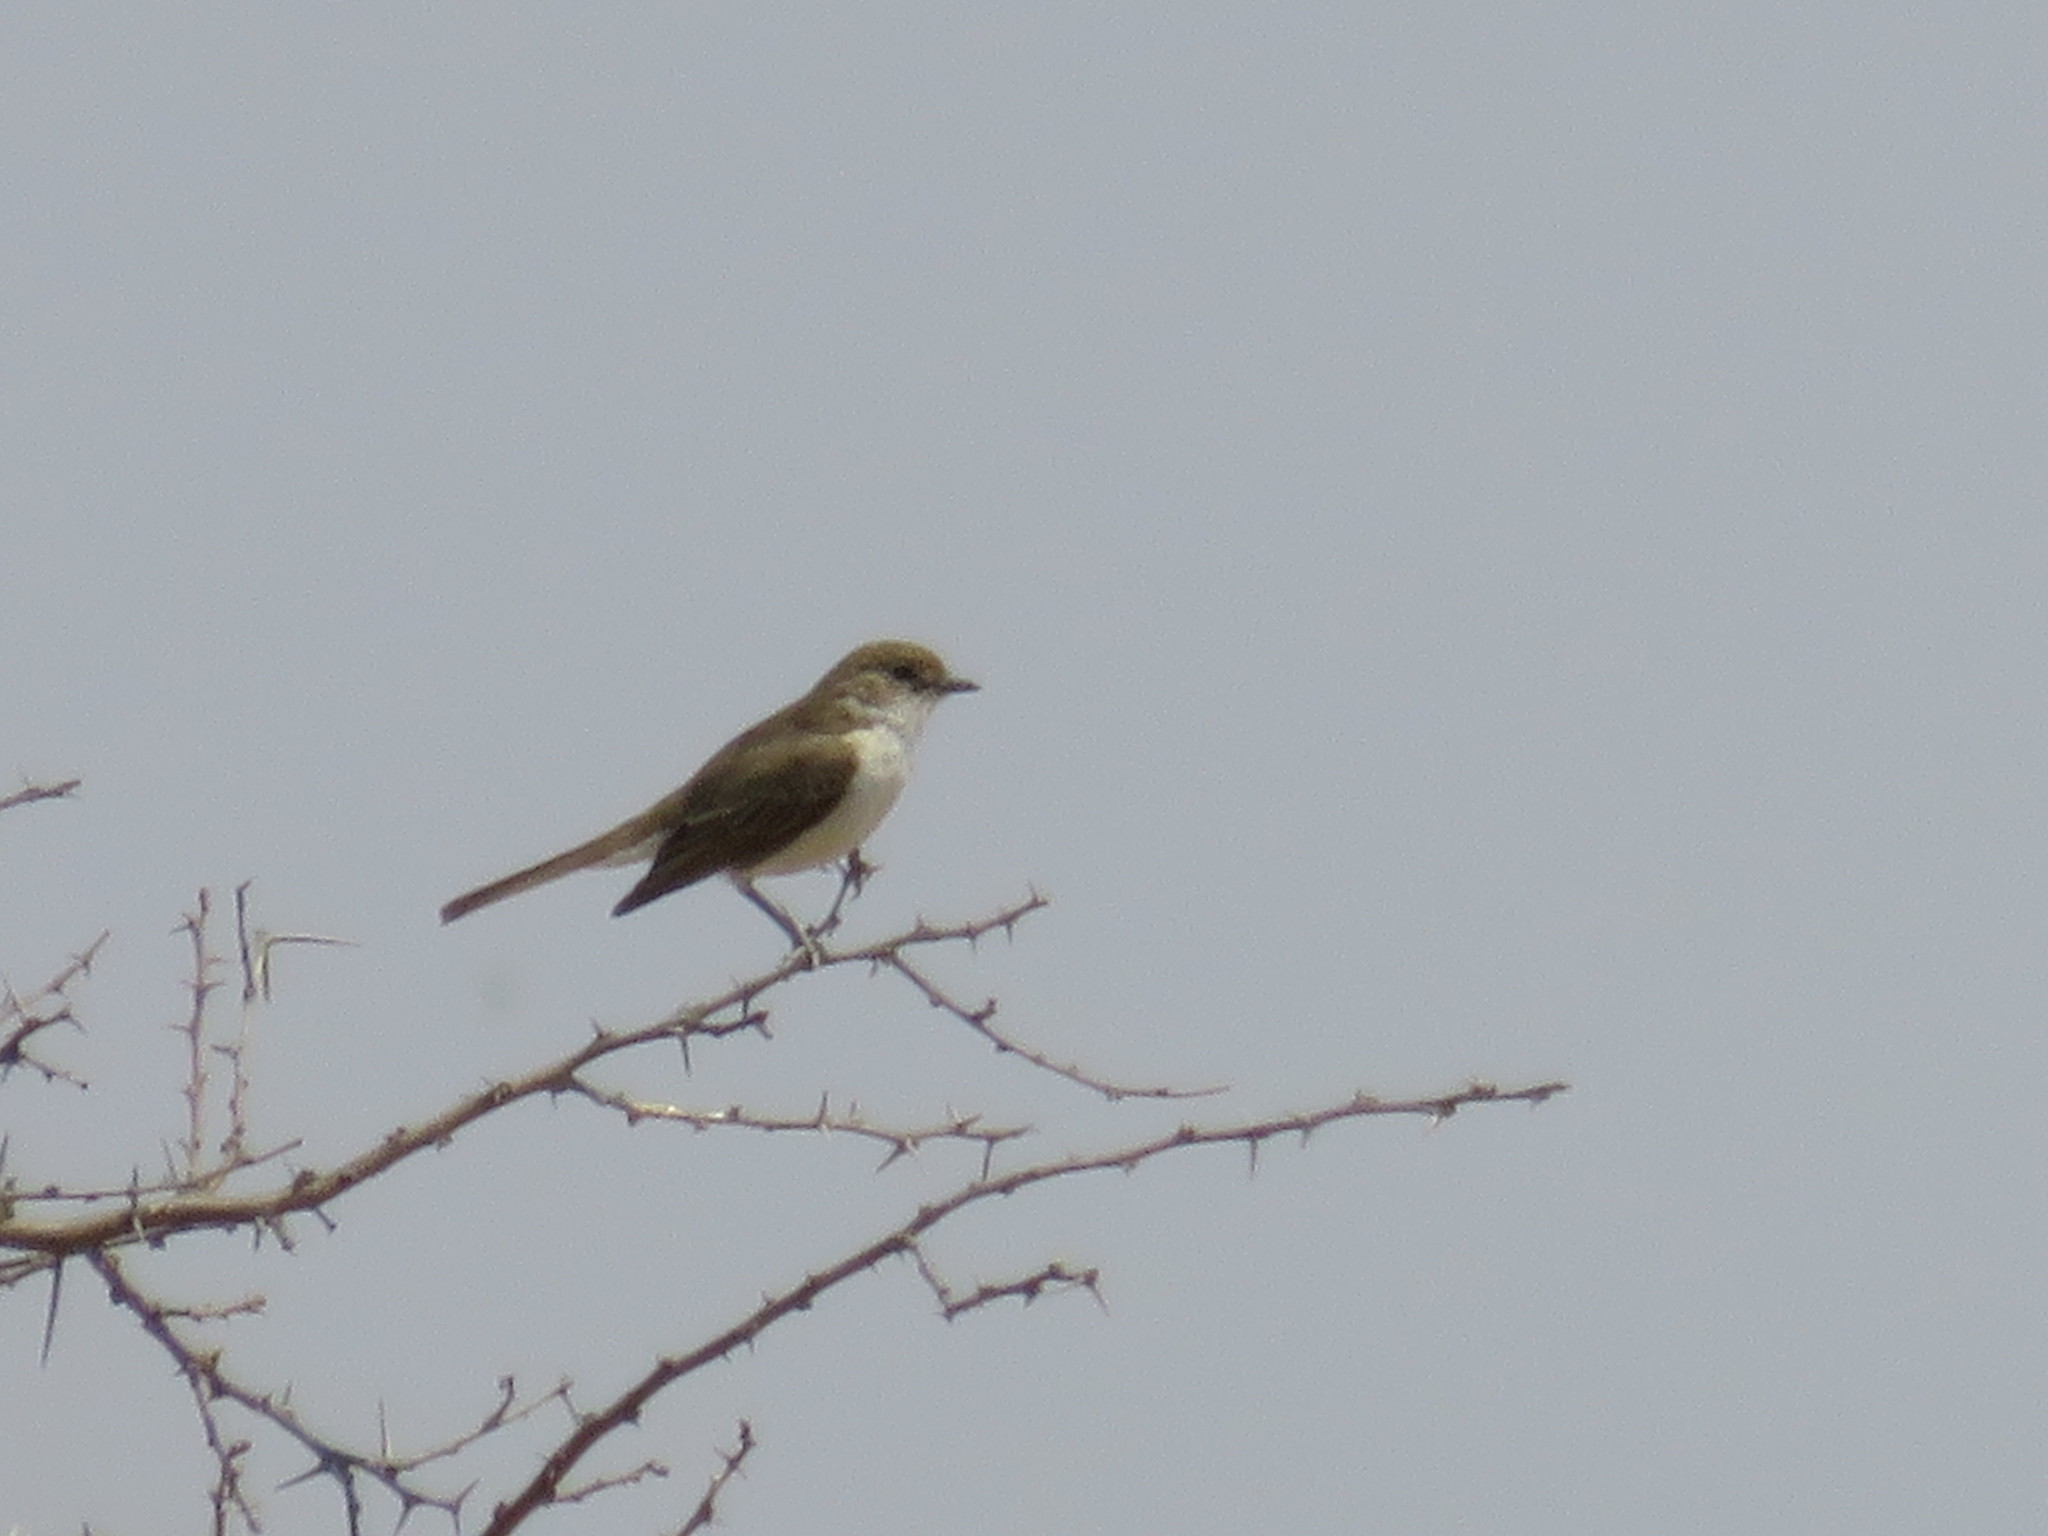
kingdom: Animalia
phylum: Chordata
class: Aves
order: Passeriformes
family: Muscicapidae
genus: Bradornis
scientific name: Bradornis mariquensis
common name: Marico flycatcher
